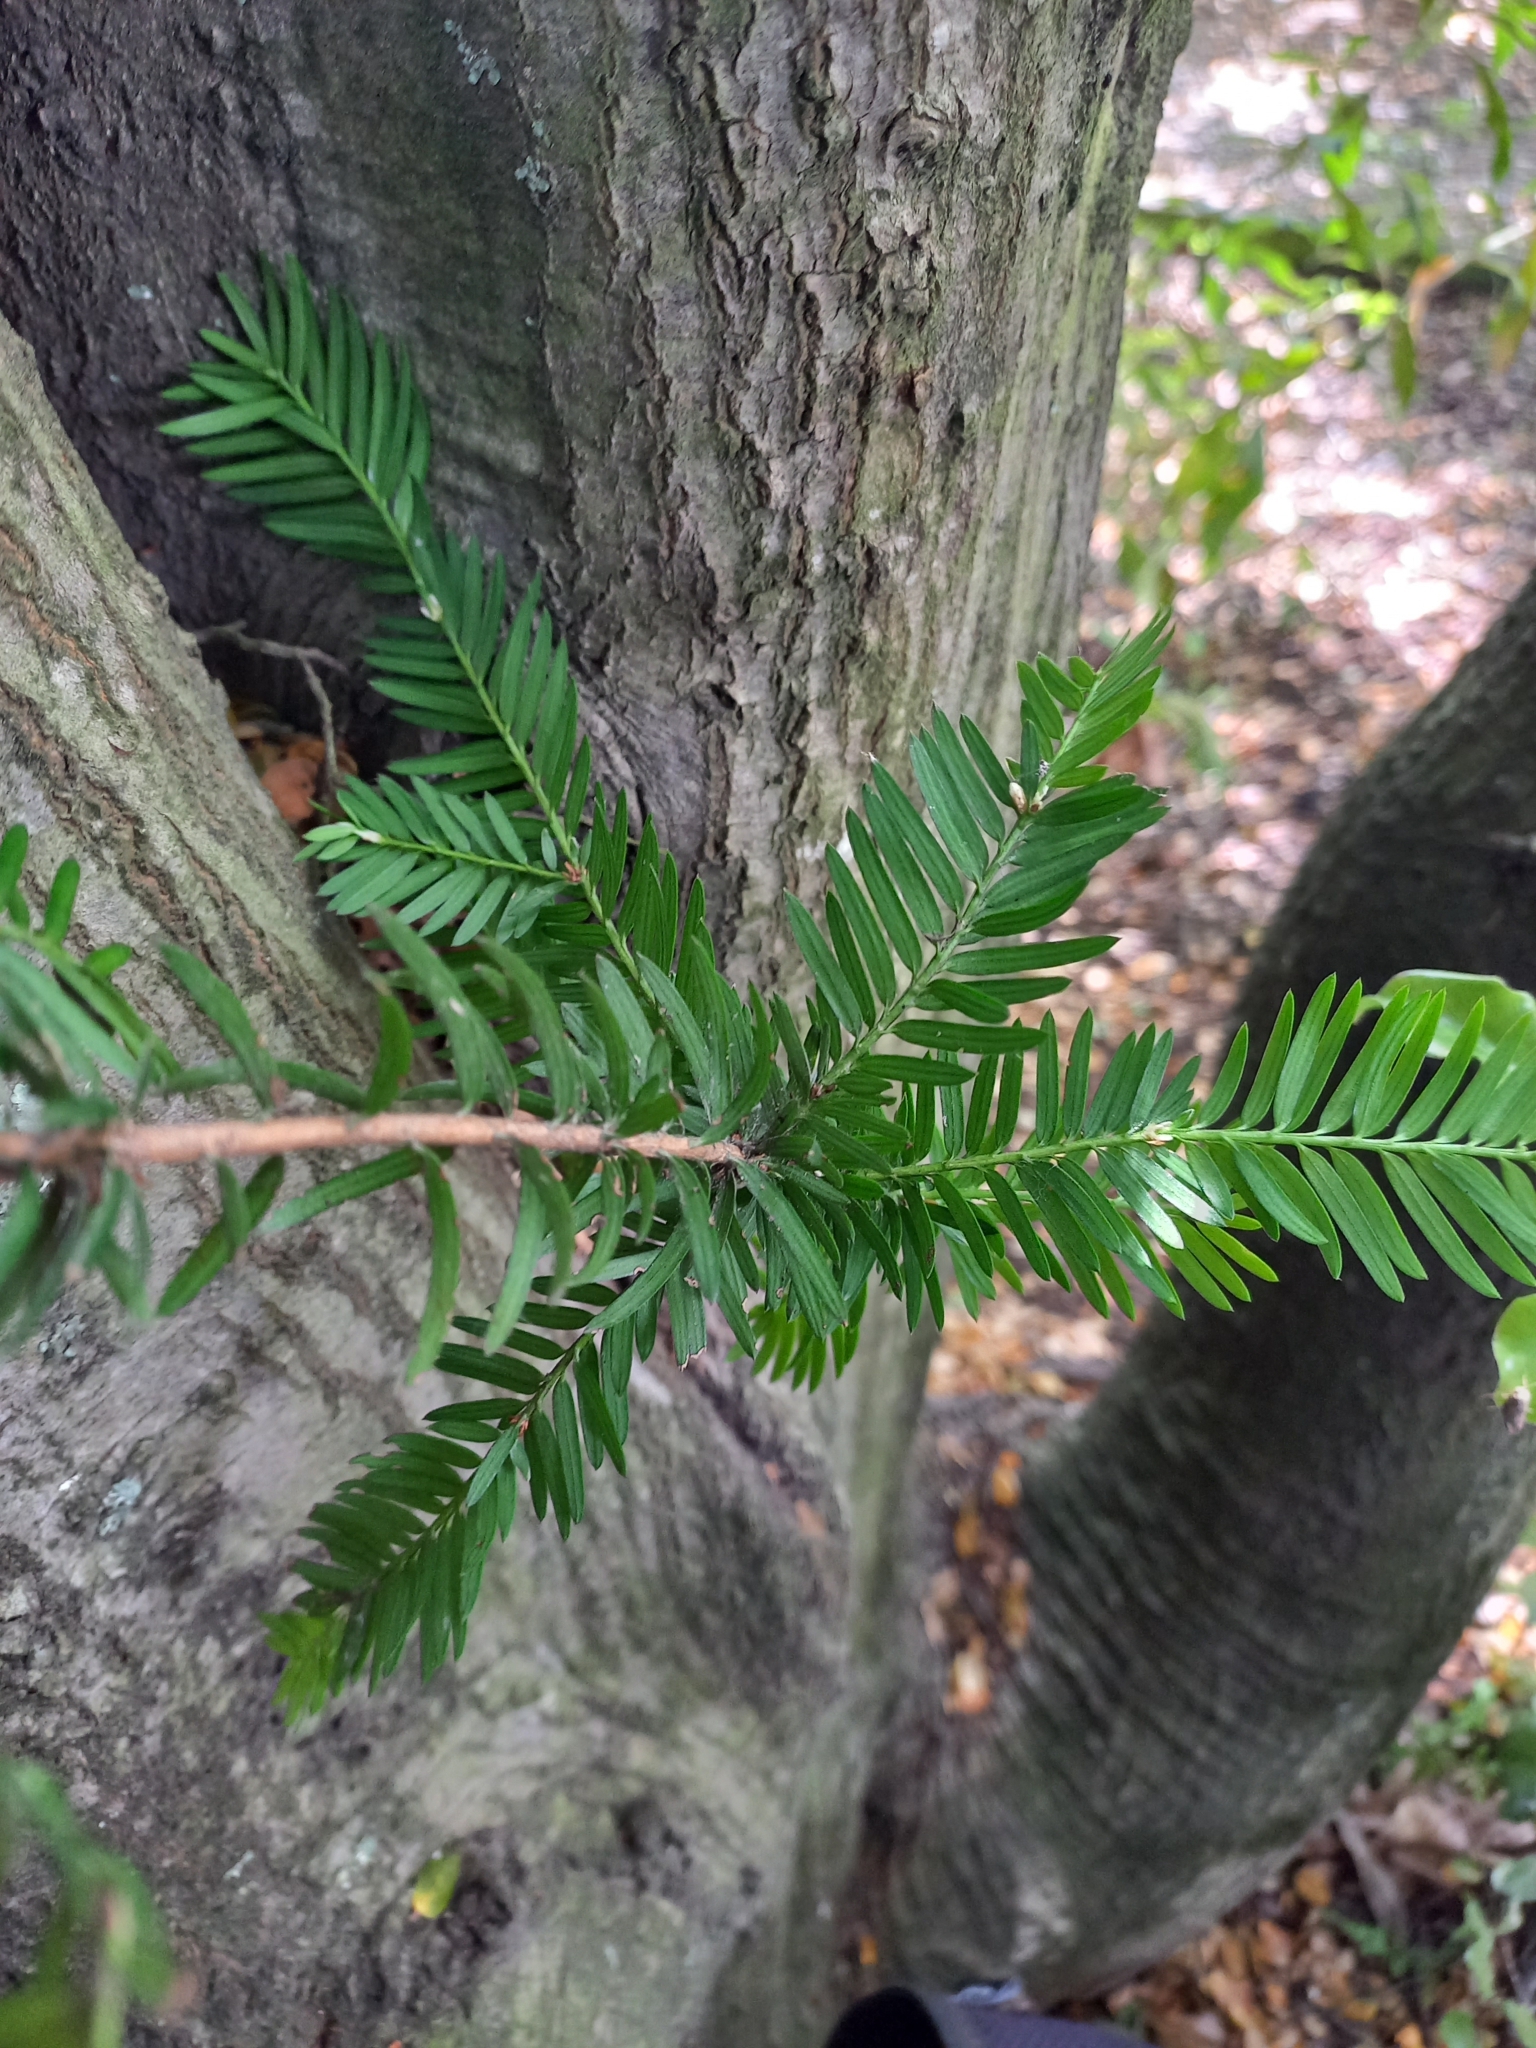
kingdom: Plantae
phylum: Tracheophyta
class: Pinopsida
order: Pinales
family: Taxaceae
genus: Taxus
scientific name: Taxus baccata
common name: Yew
